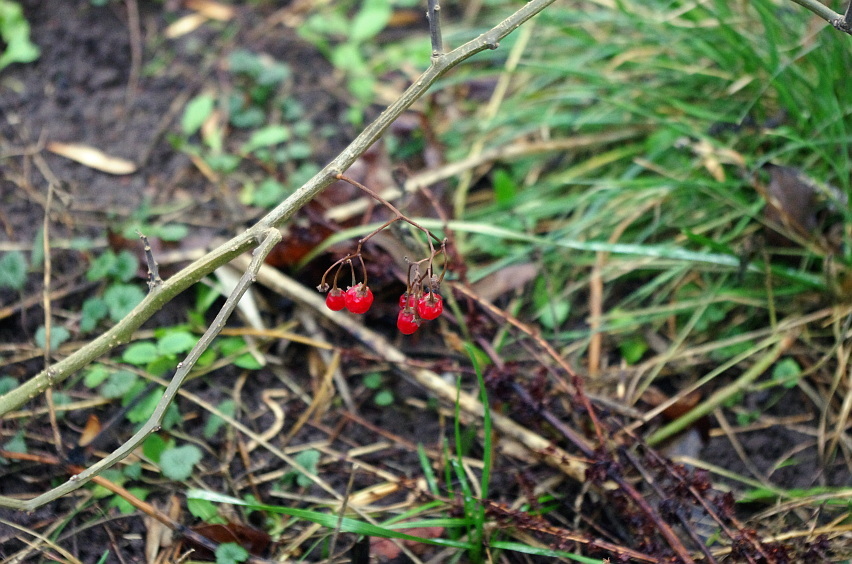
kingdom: Plantae
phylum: Tracheophyta
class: Magnoliopsida
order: Solanales
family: Solanaceae
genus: Solanum
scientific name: Solanum dulcamara
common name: Climbing nightshade
